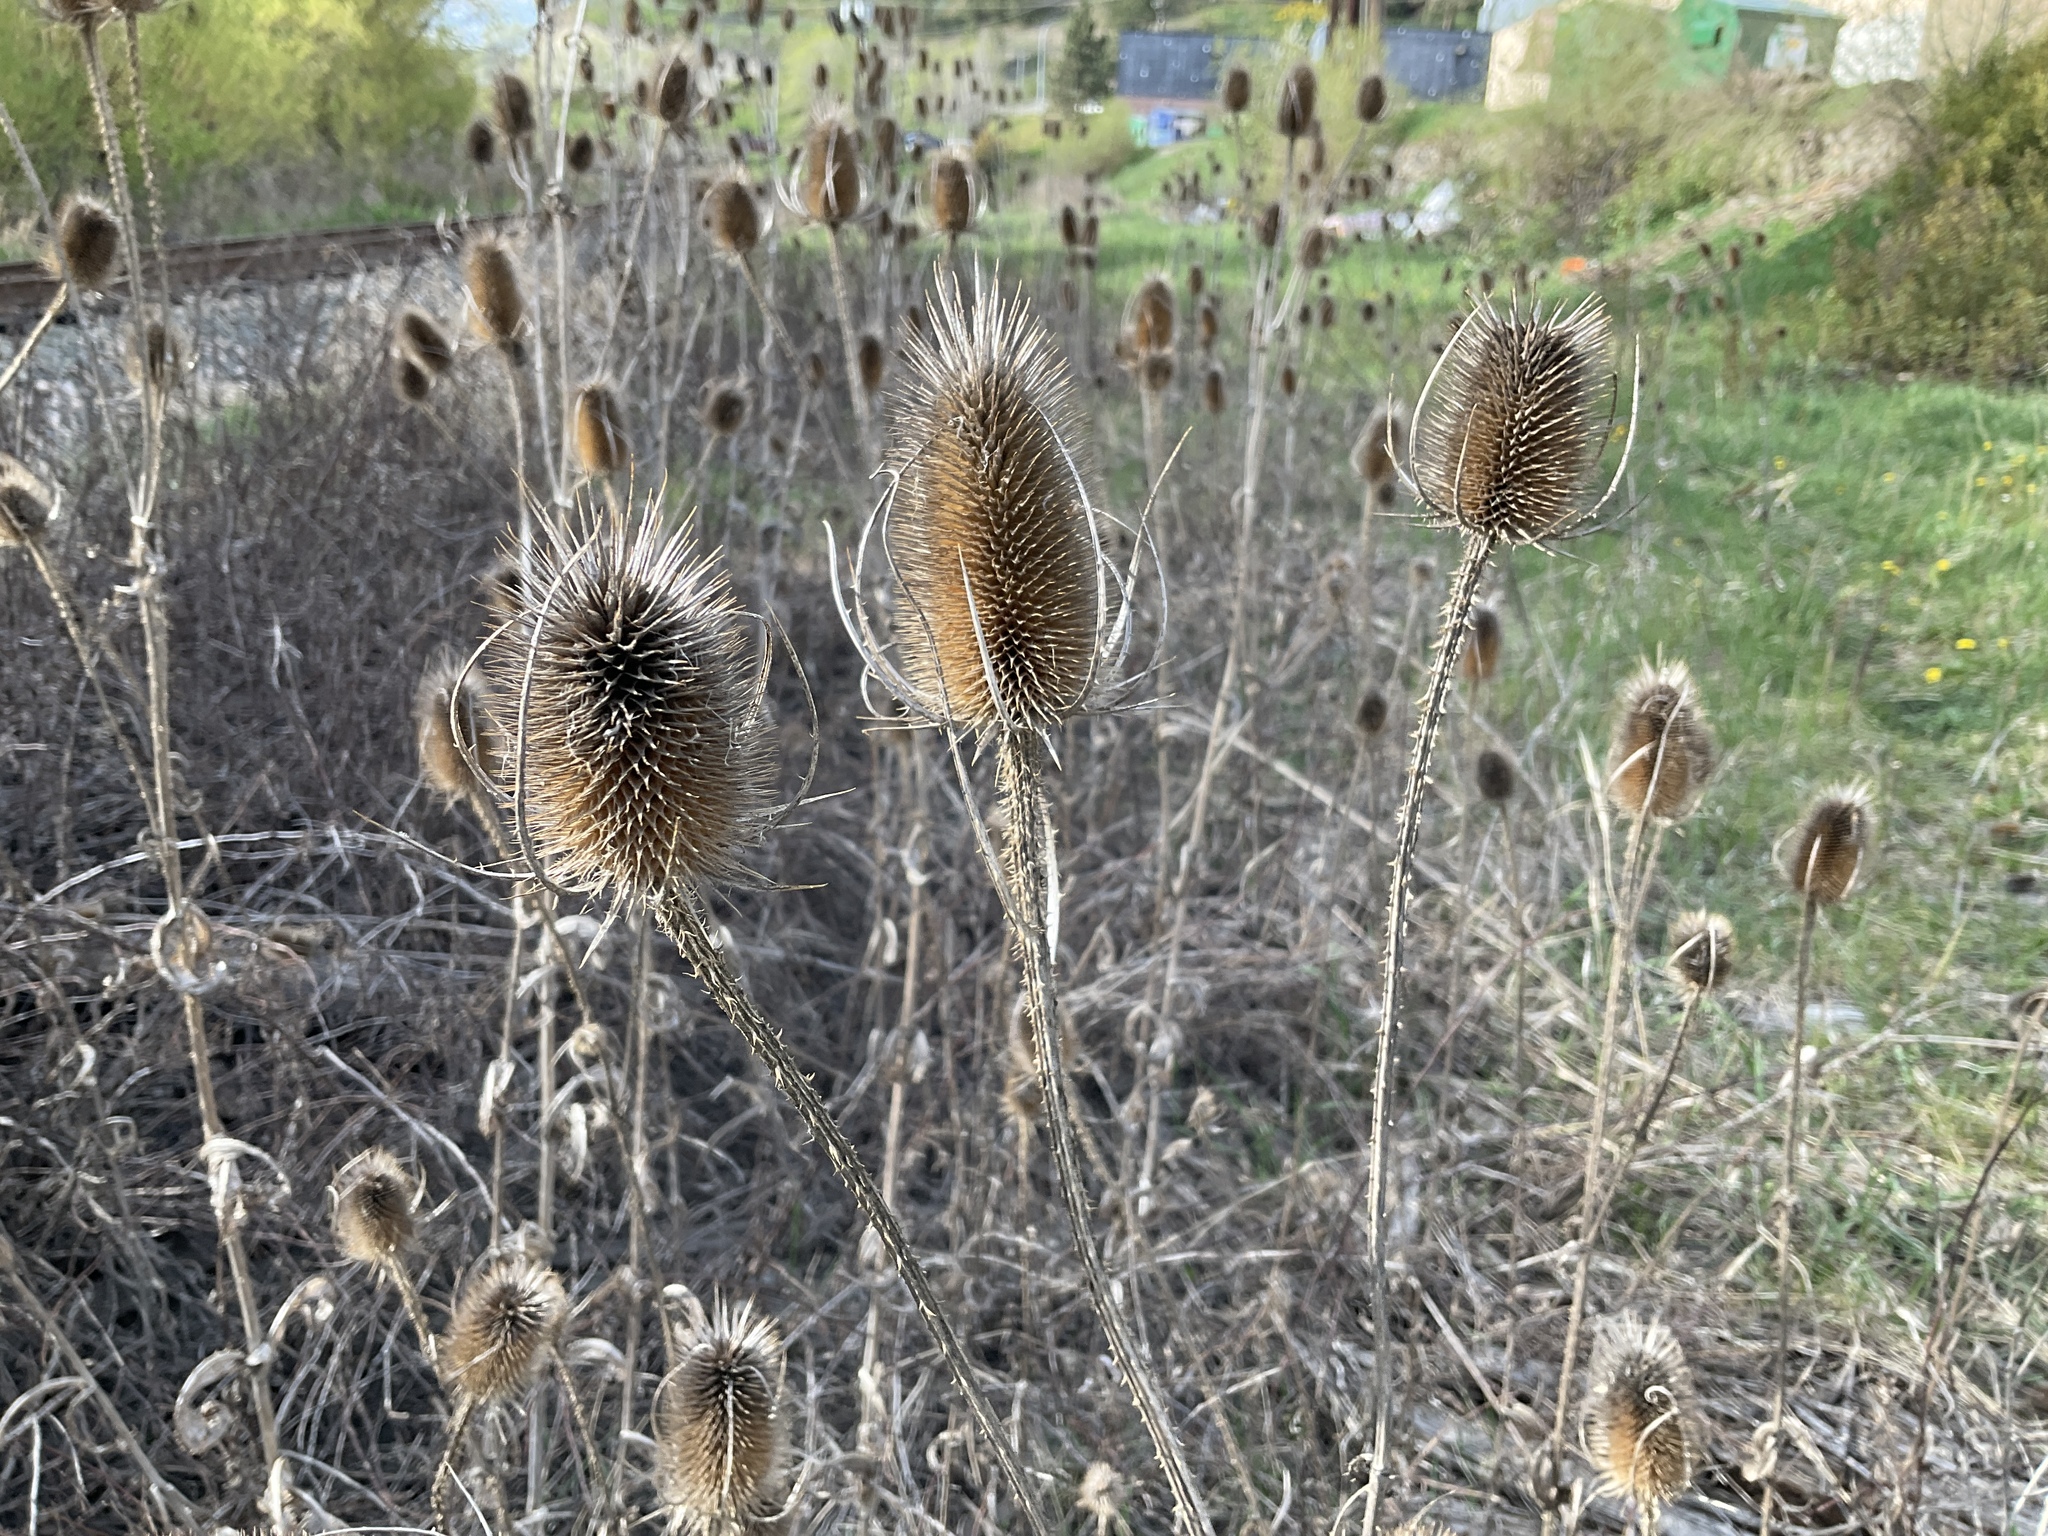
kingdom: Plantae
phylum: Tracheophyta
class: Magnoliopsida
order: Dipsacales
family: Caprifoliaceae
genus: Dipsacus
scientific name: Dipsacus fullonum
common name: Teasel
